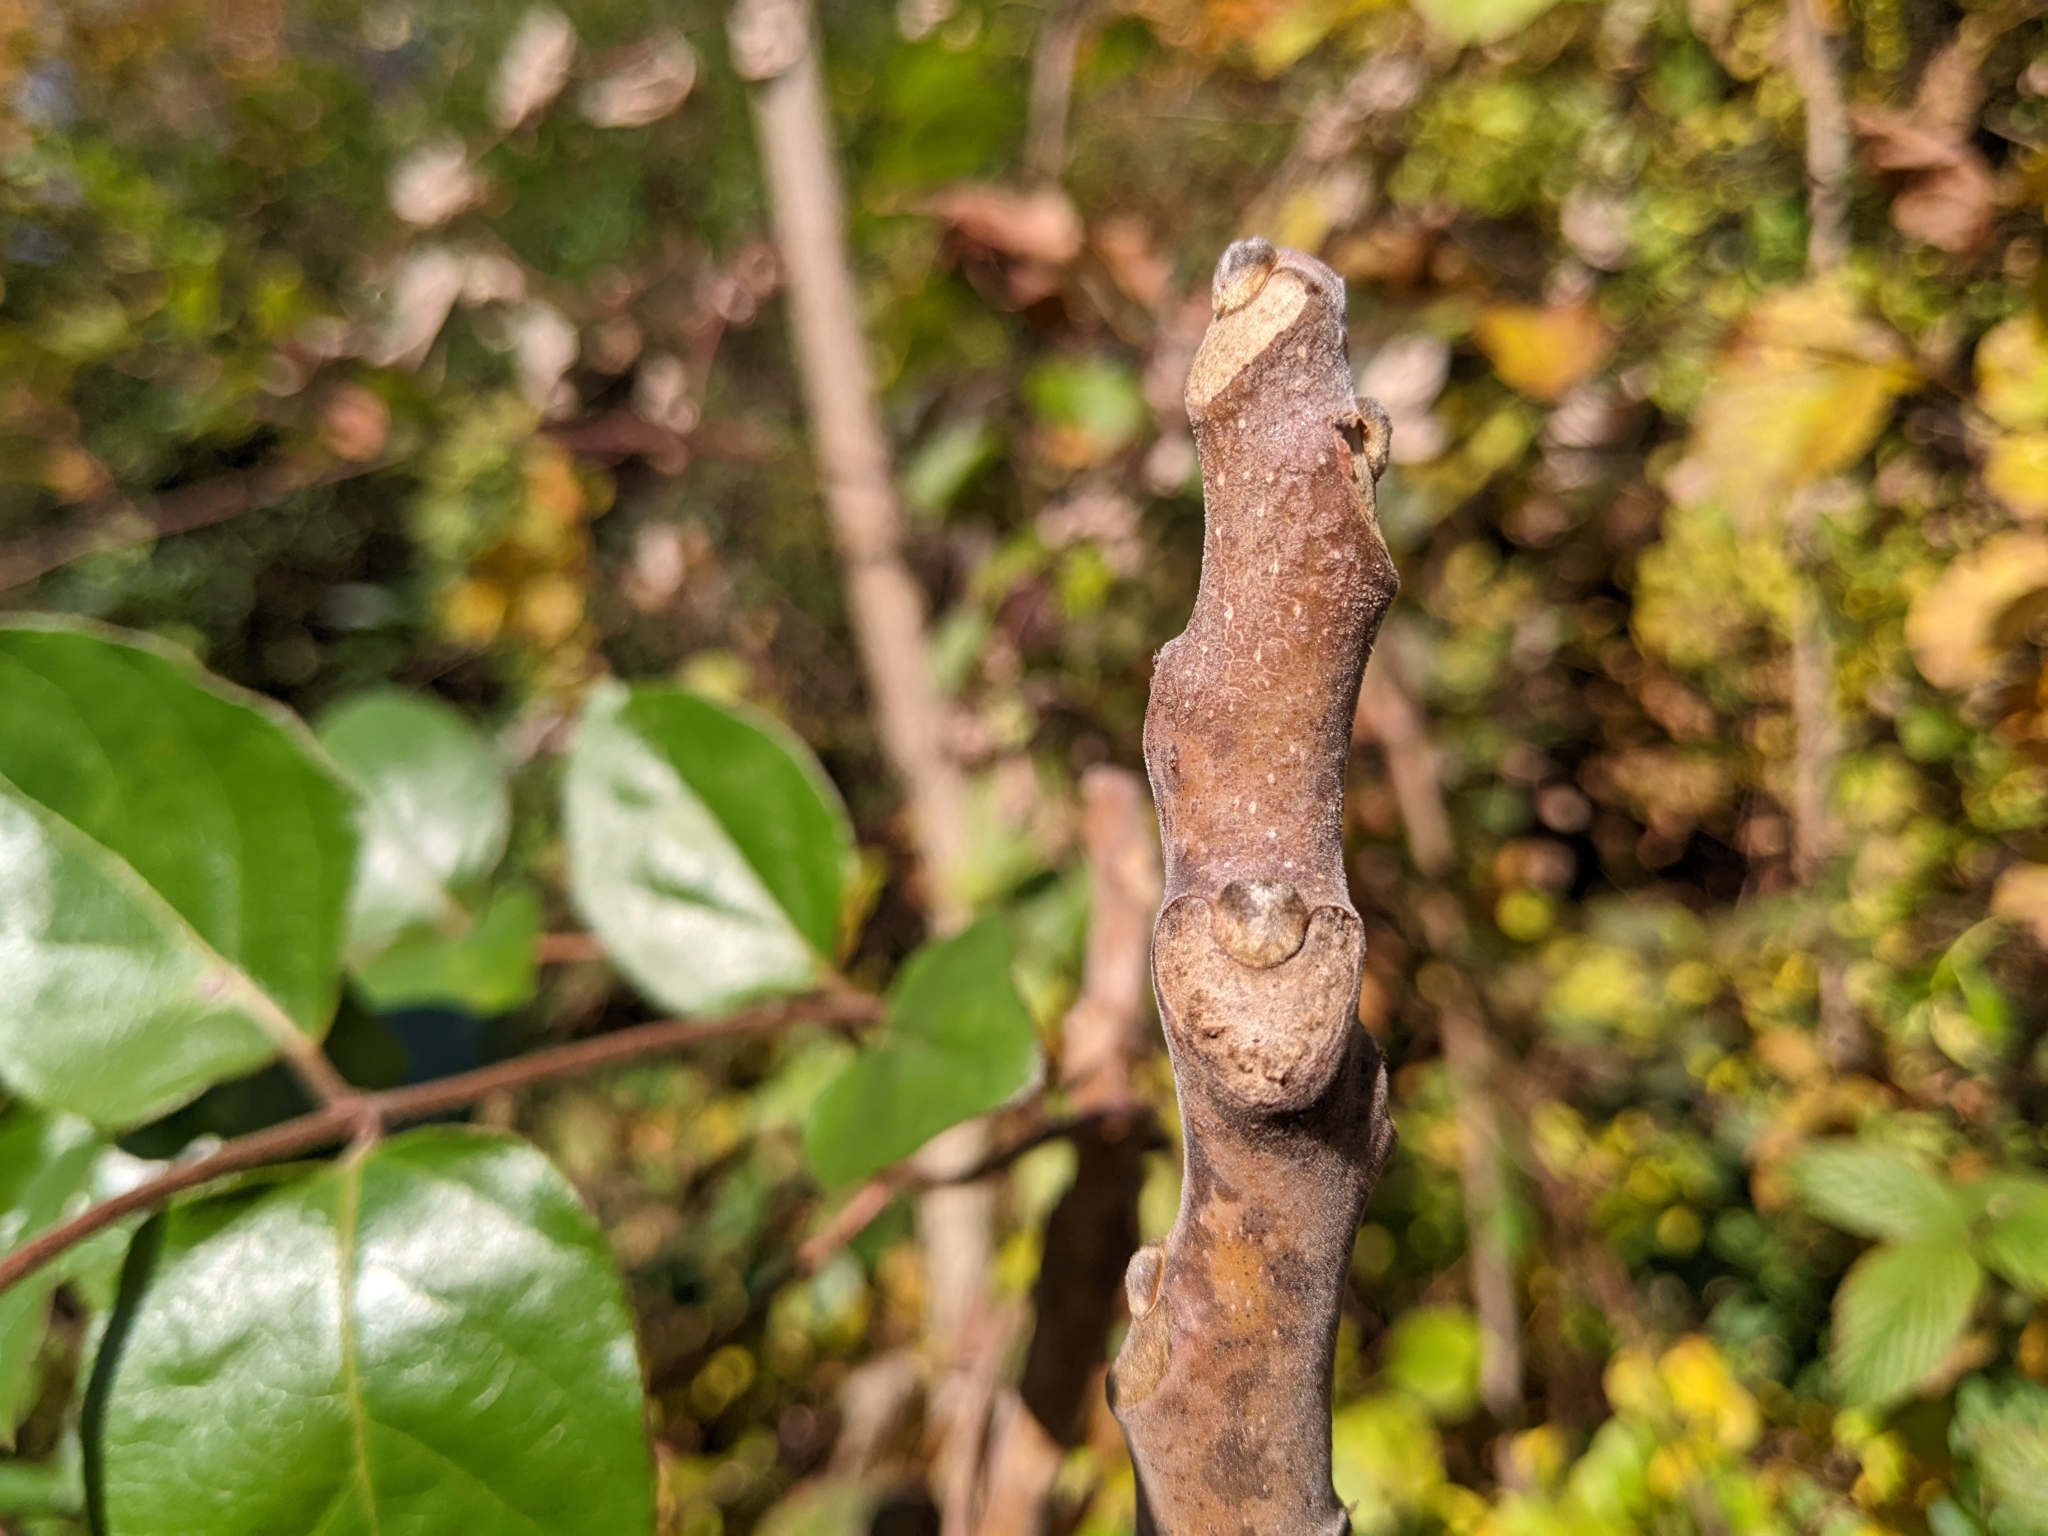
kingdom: Plantae
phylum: Tracheophyta
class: Magnoliopsida
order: Sapindales
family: Simaroubaceae
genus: Ailanthus
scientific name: Ailanthus altissima
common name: Tree-of-heaven
